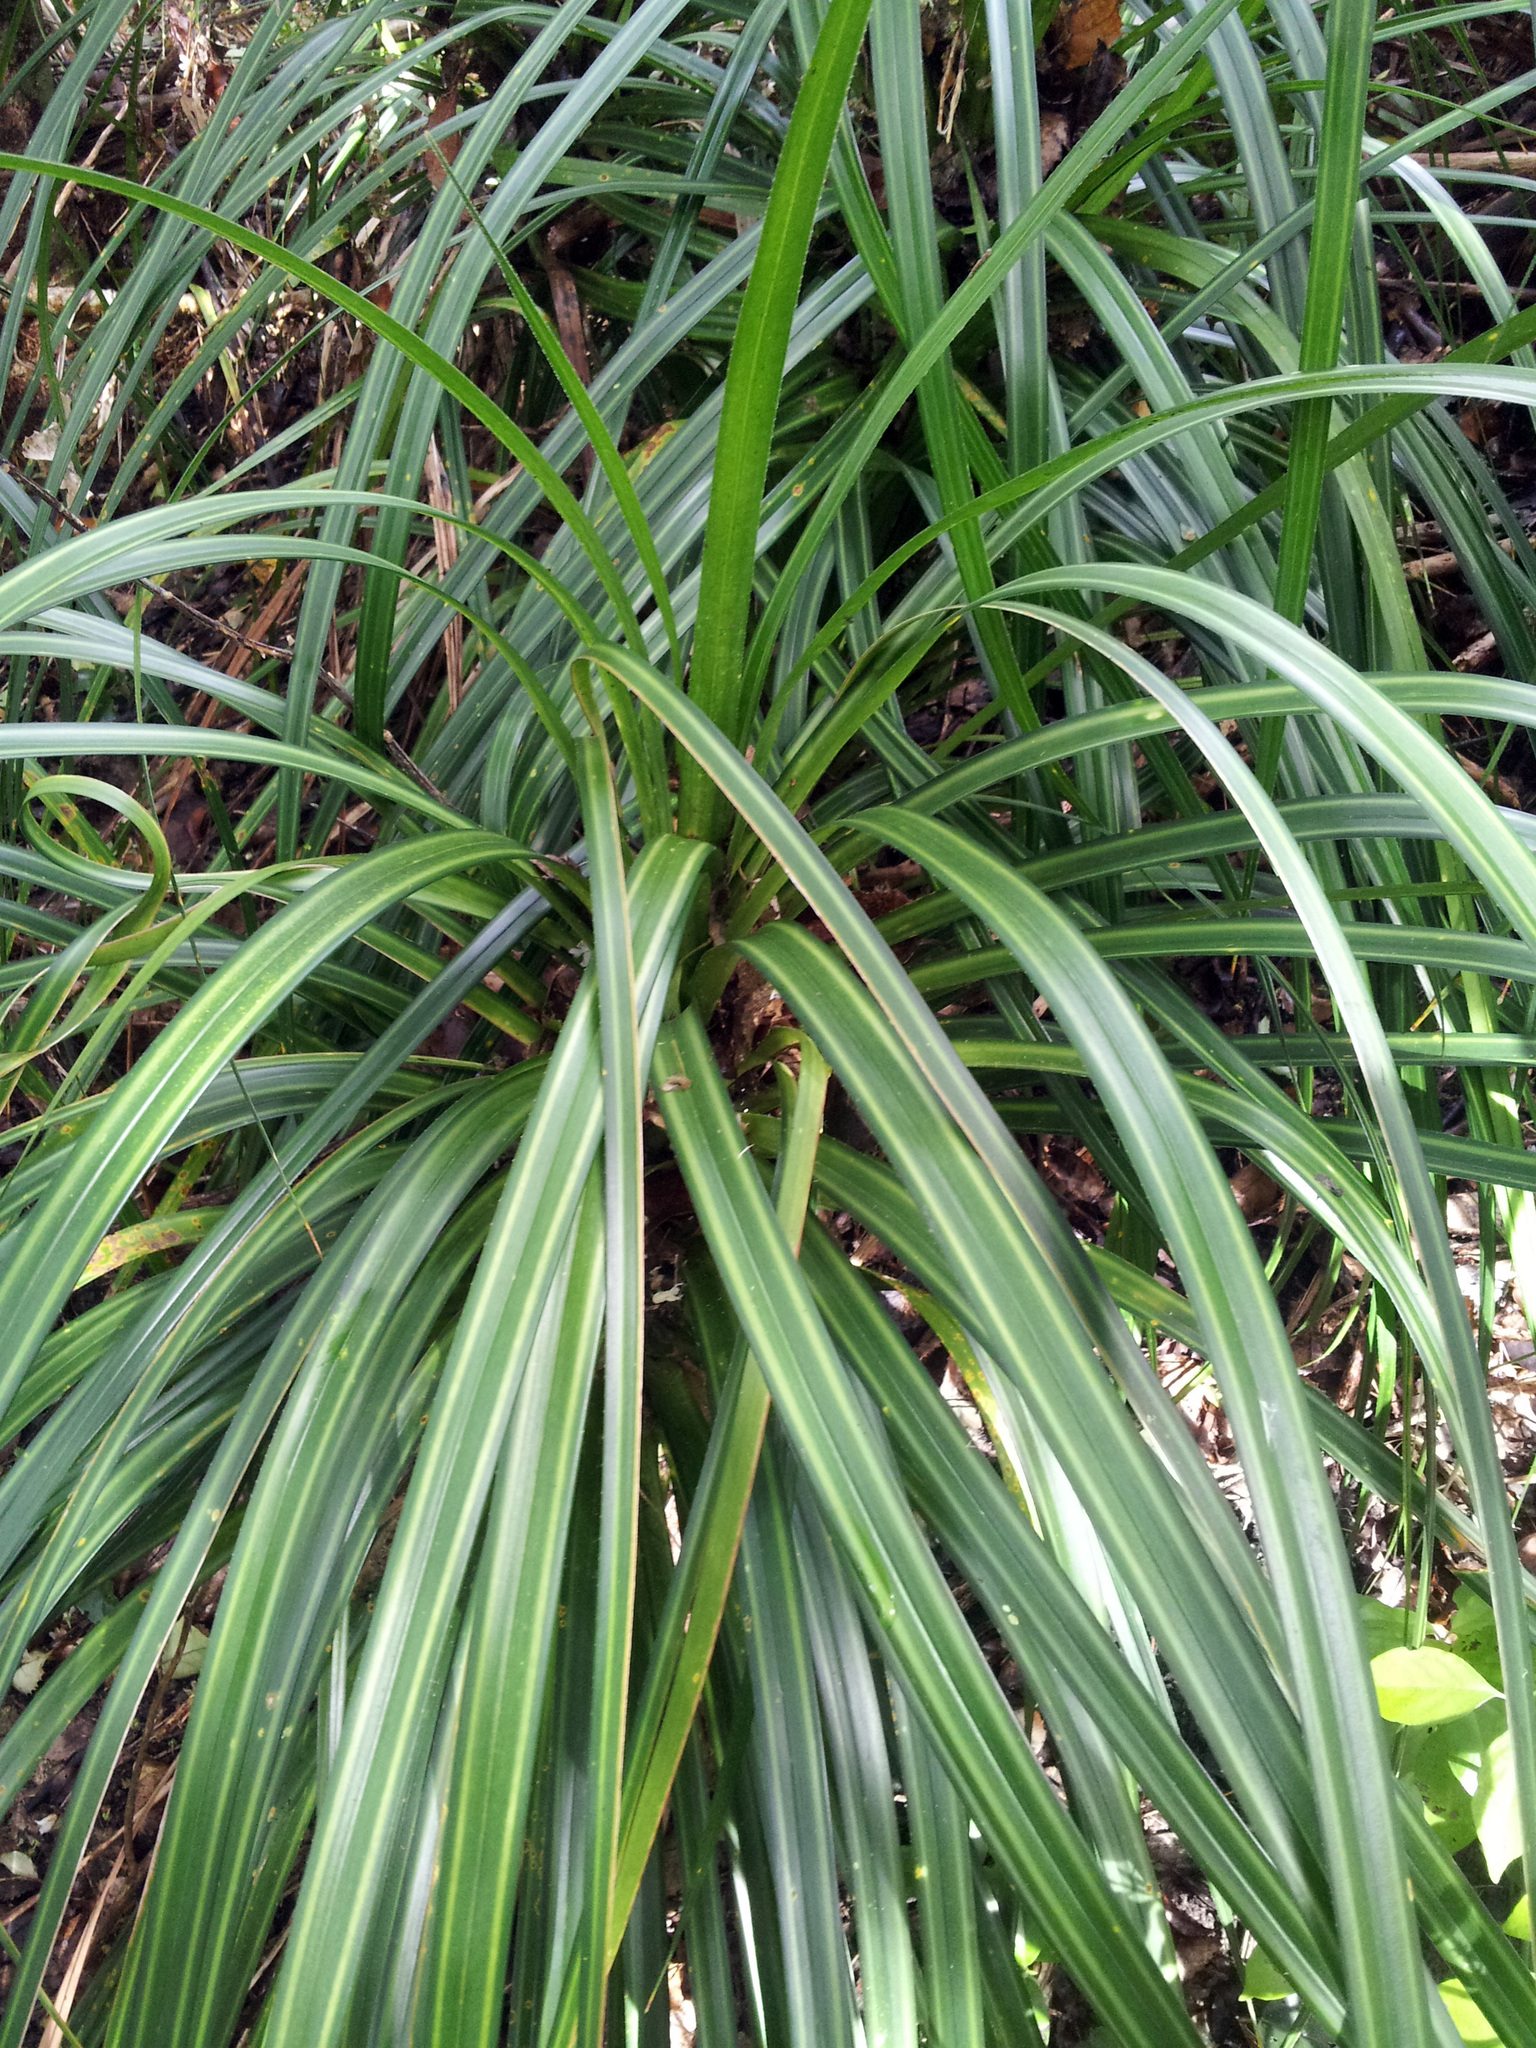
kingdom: Plantae
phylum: Tracheophyta
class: Liliopsida
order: Pandanales
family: Pandanaceae
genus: Freycinetia
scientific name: Freycinetia banksii
